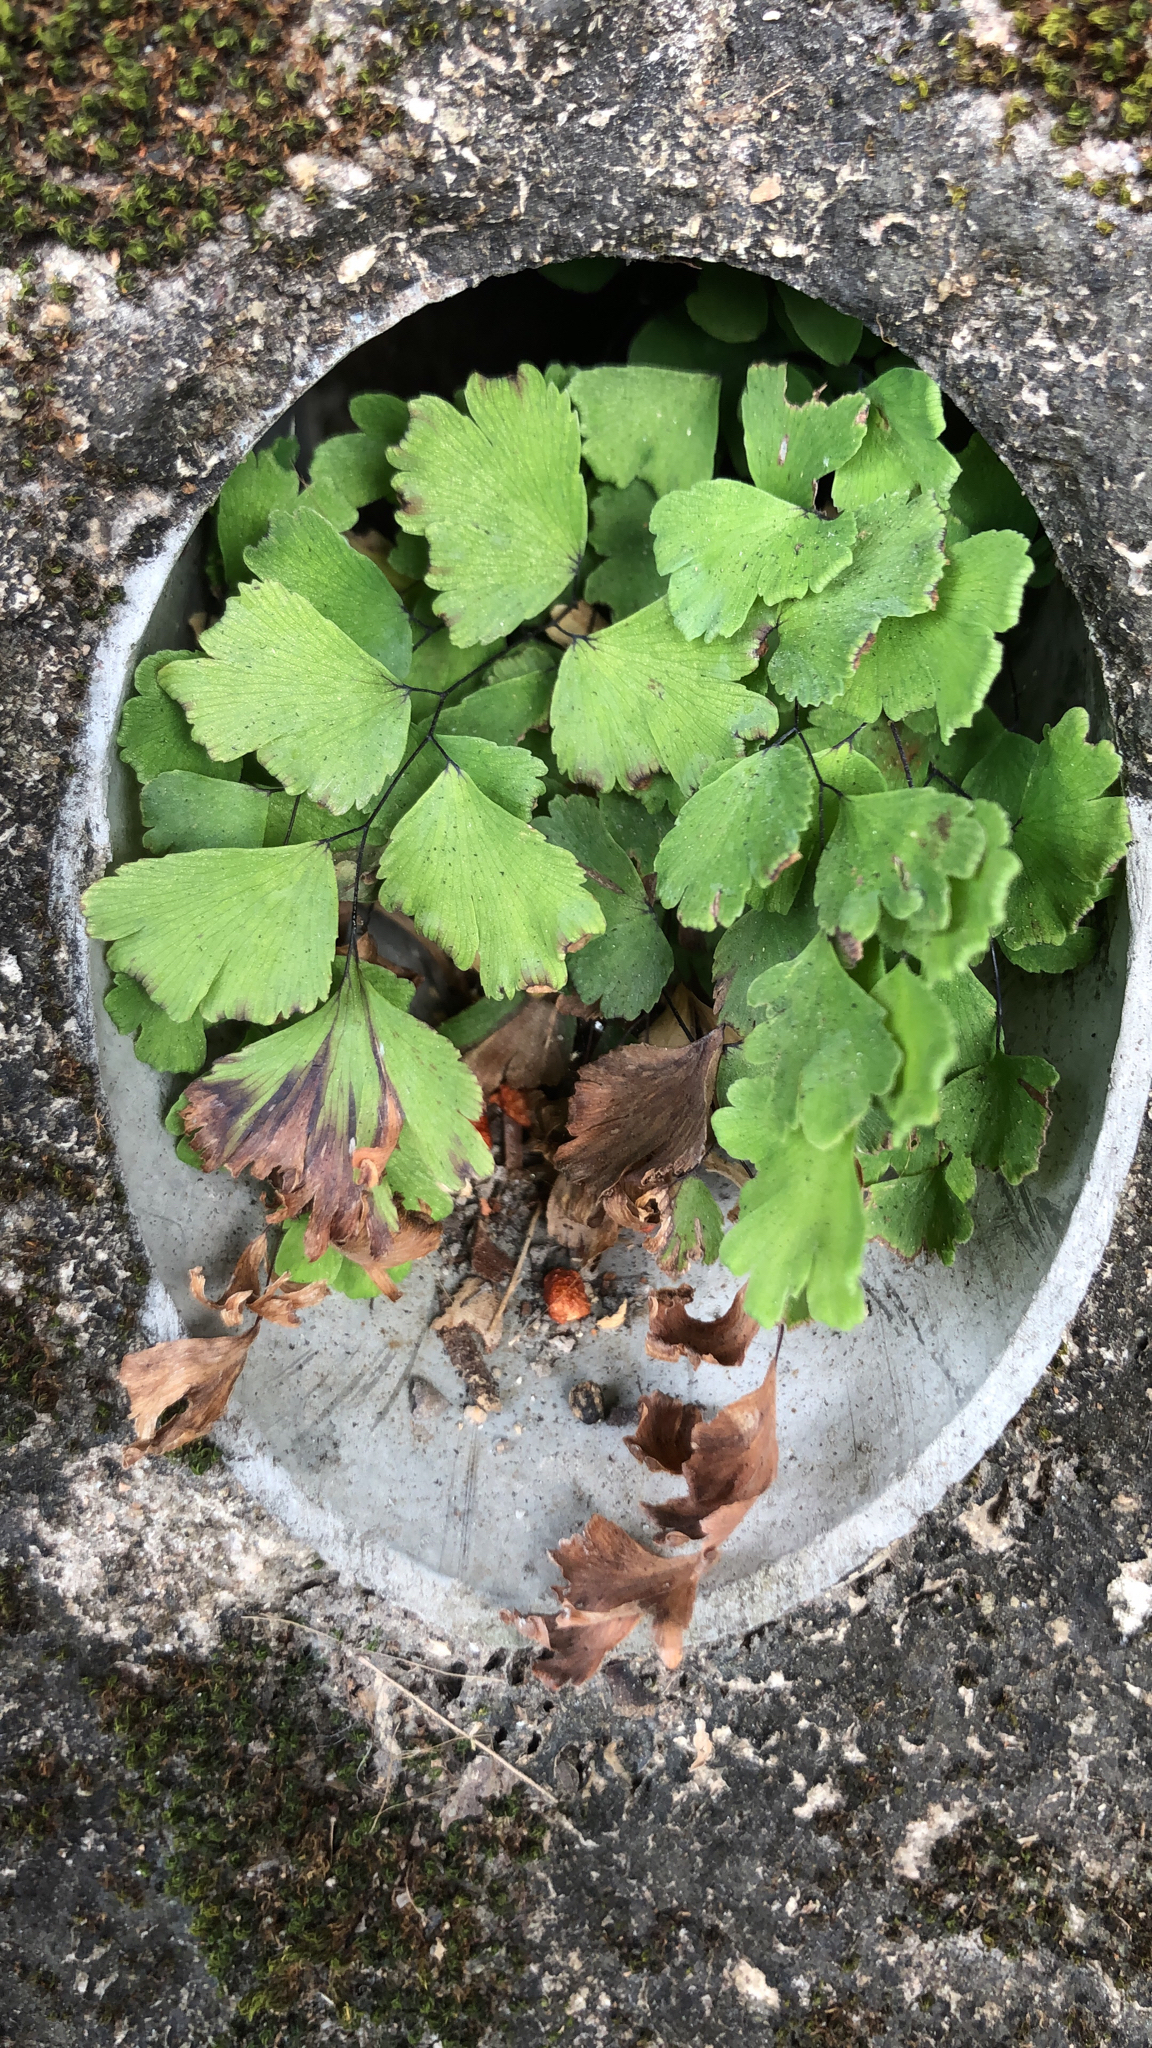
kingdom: Plantae
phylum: Tracheophyta
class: Polypodiopsida
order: Polypodiales
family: Pteridaceae
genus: Adiantum
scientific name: Adiantum capillus-veneris
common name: Maidenhair fern
